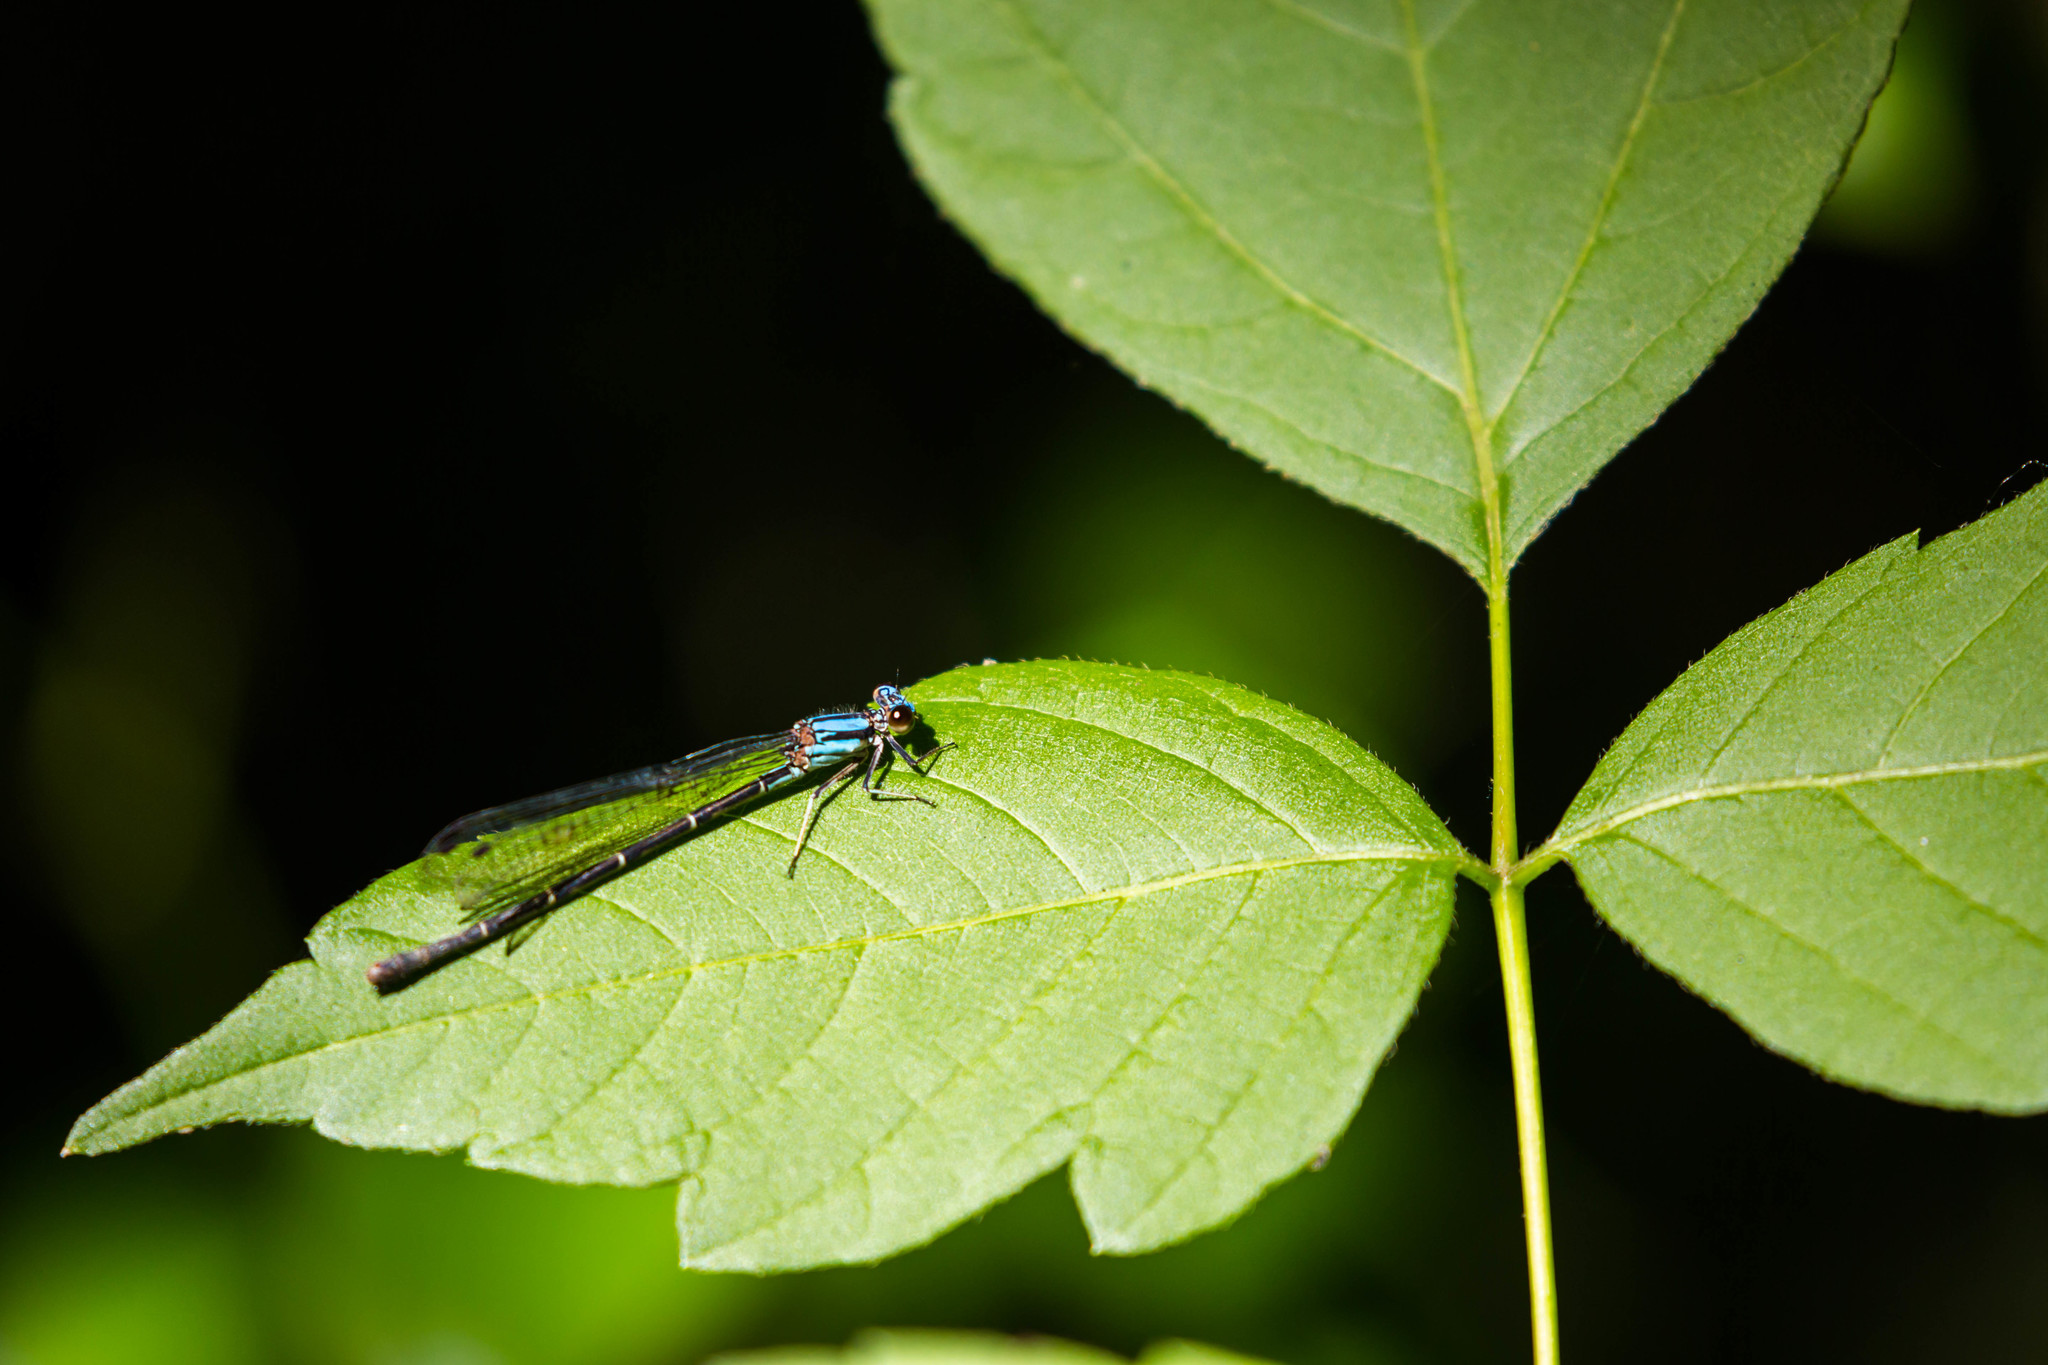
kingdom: Animalia
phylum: Arthropoda
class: Insecta
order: Odonata
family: Coenagrionidae
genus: Argia
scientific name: Argia tibialis
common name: Blue-tipped dancer
